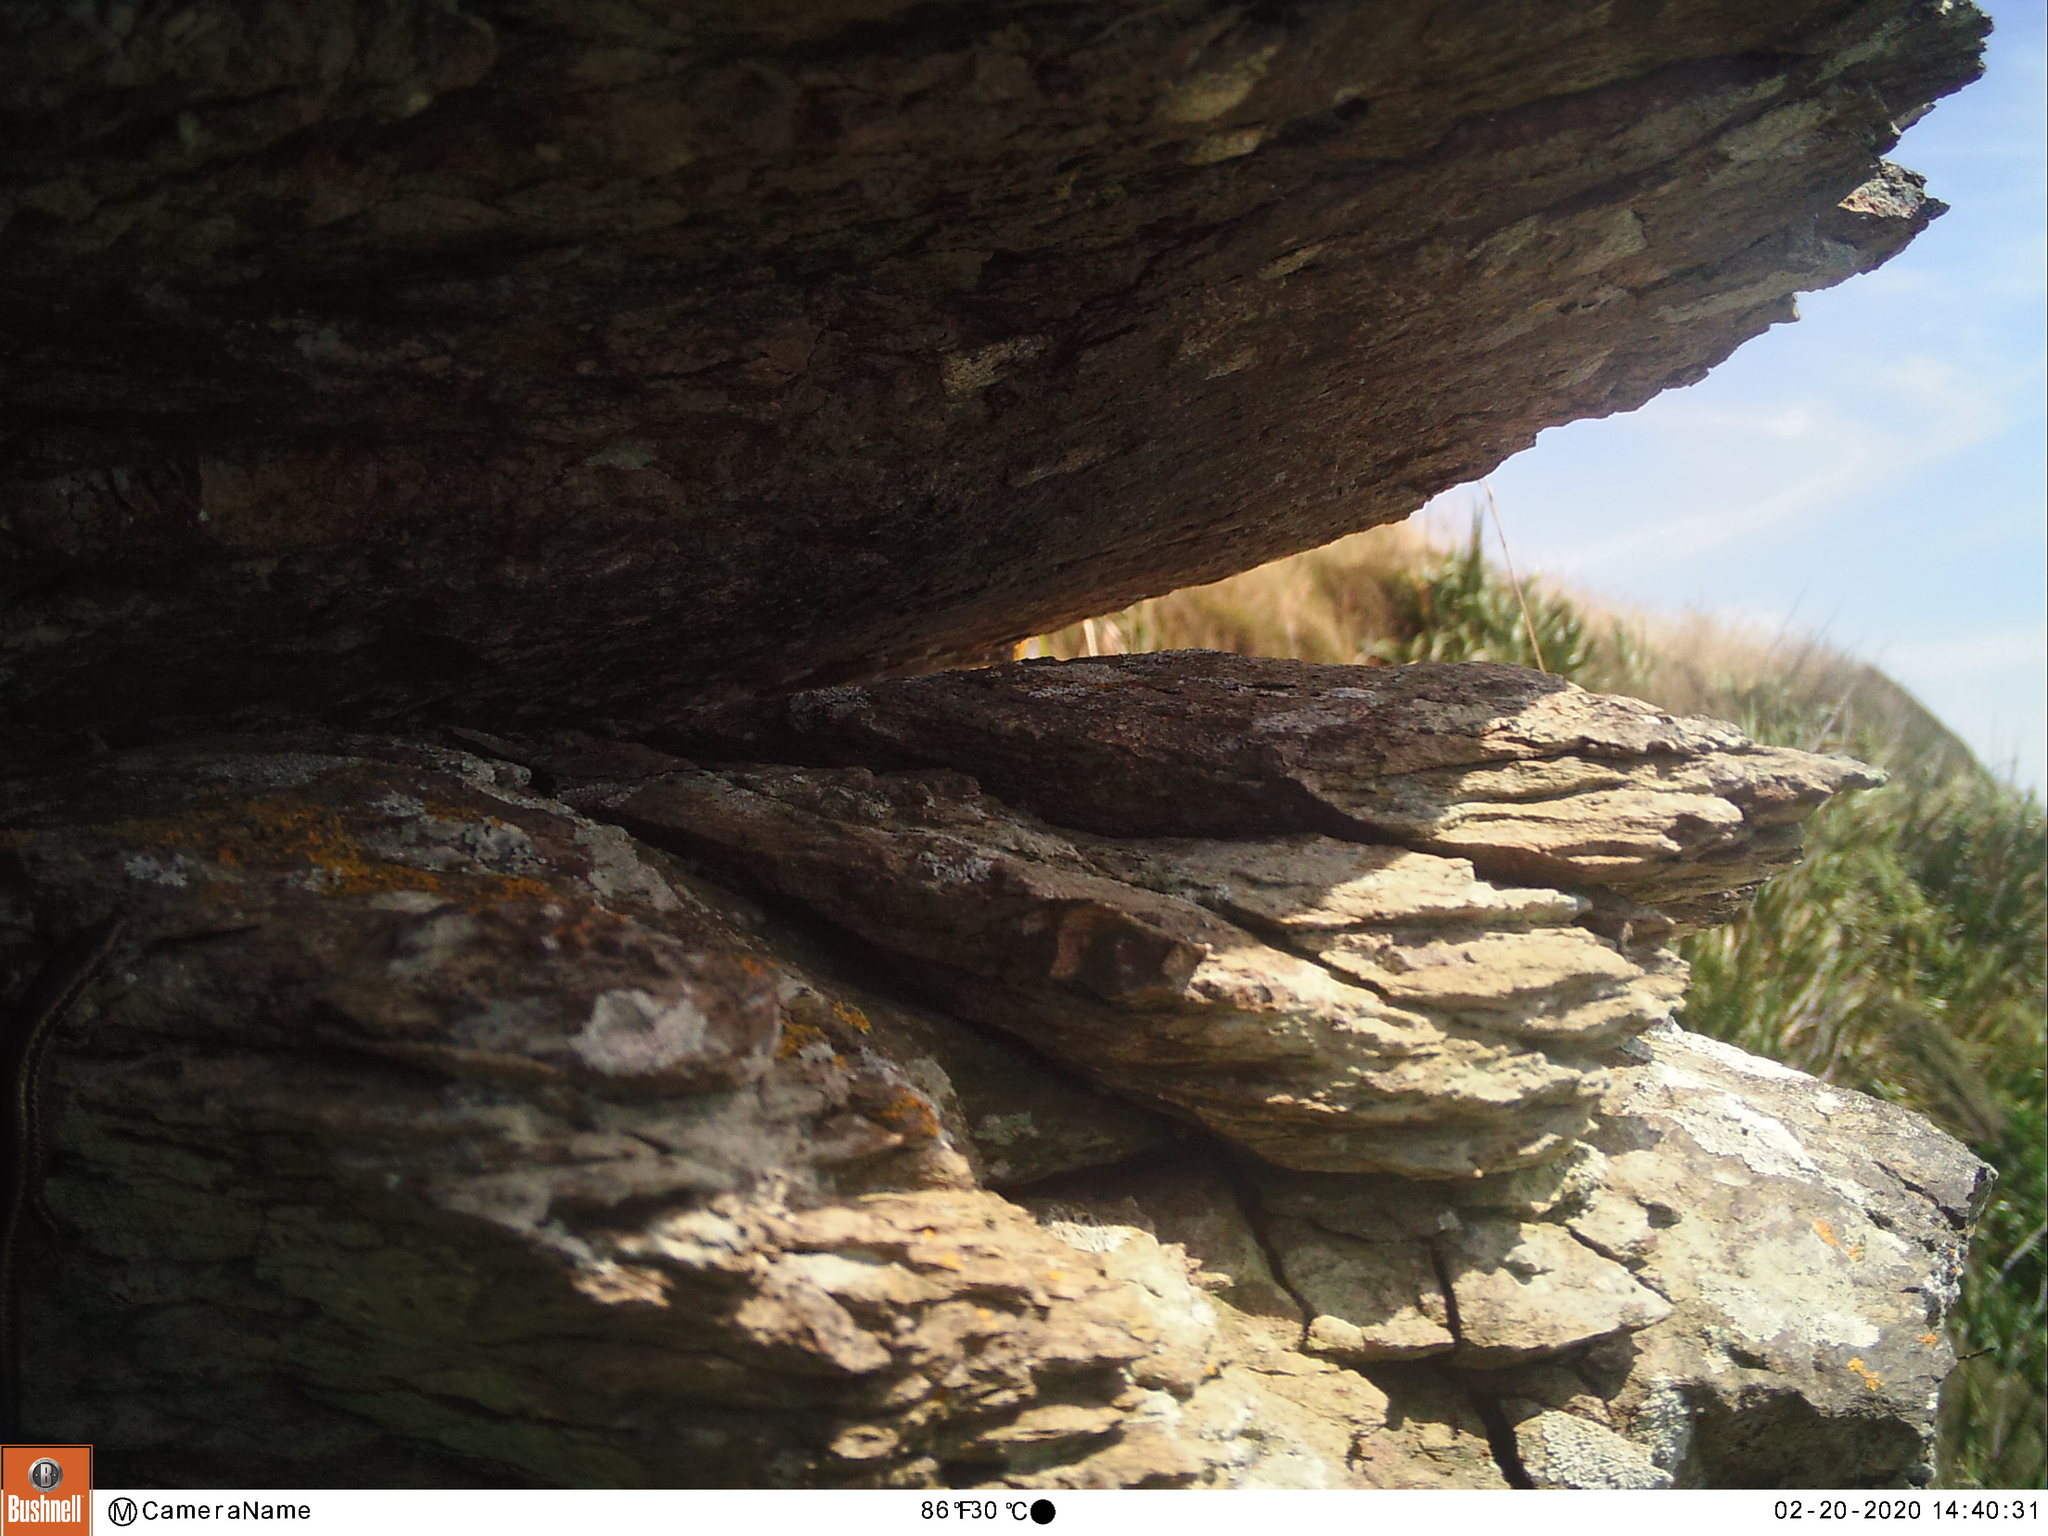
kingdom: Animalia
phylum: Chordata
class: Squamata
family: Scincidae
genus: Oligosoma
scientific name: Oligosoma polychroma
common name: Common new zealand skink
